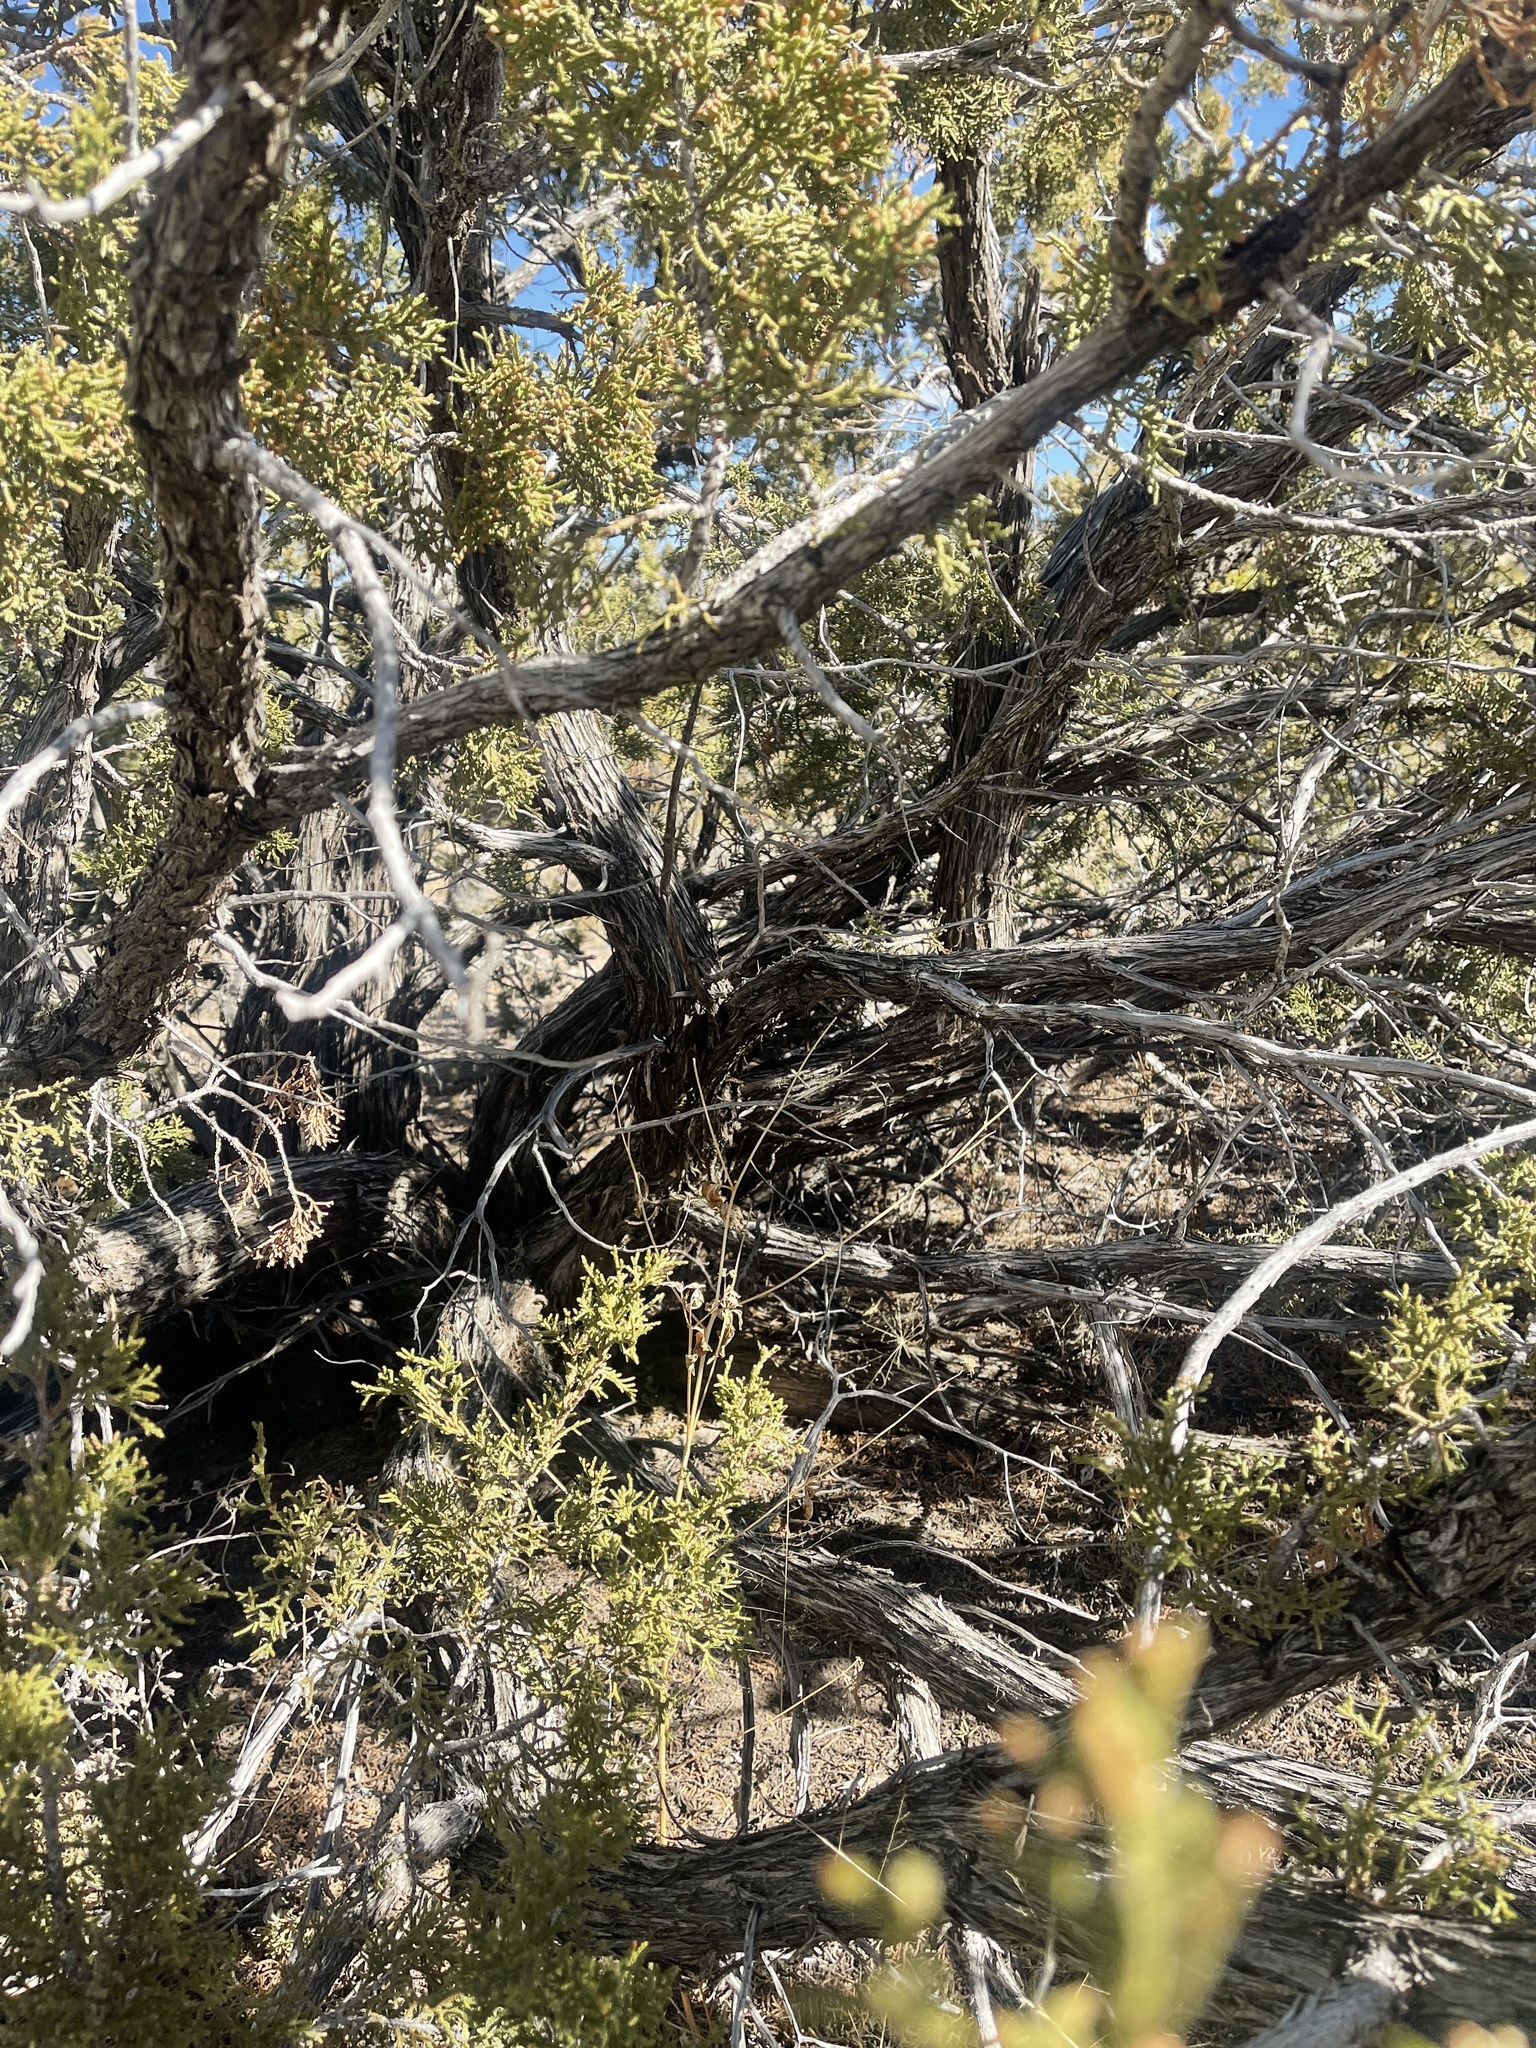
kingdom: Plantae
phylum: Tracheophyta
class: Pinopsida
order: Pinales
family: Cupressaceae
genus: Juniperus
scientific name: Juniperus monosperma
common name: One-seed juniper
